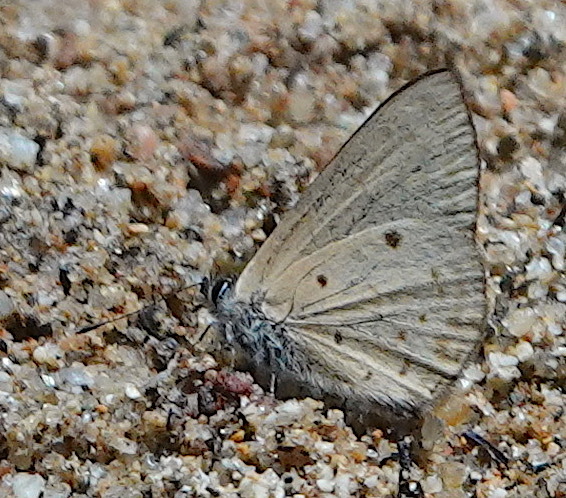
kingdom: Animalia
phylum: Arthropoda
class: Insecta
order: Lepidoptera
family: Lycaenidae
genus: Una
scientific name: Una usta
